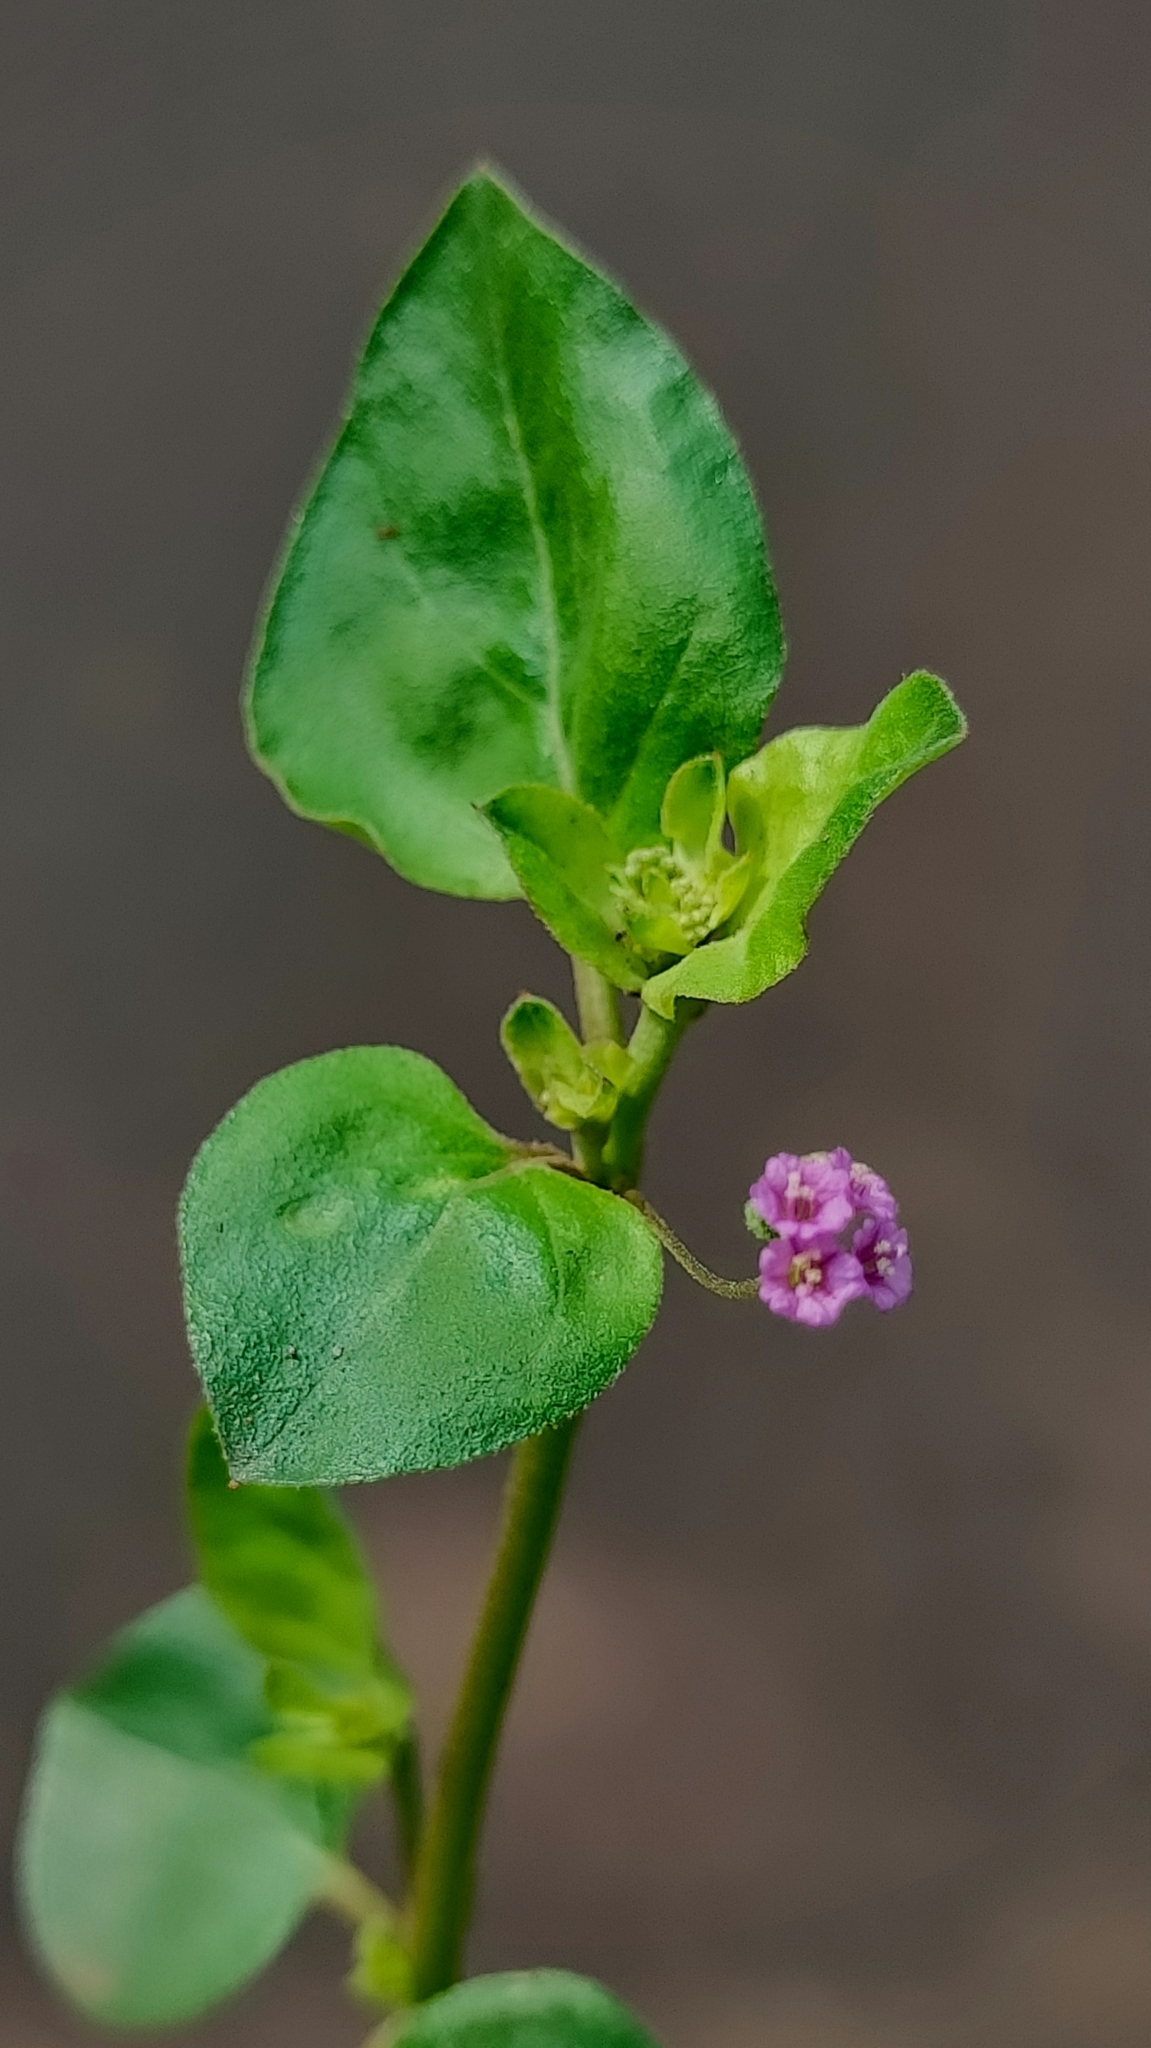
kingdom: Plantae
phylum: Tracheophyta
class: Magnoliopsida
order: Caryophyllales
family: Nyctaginaceae
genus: Boerhavia
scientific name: Boerhavia diffusa
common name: Red spiderling
